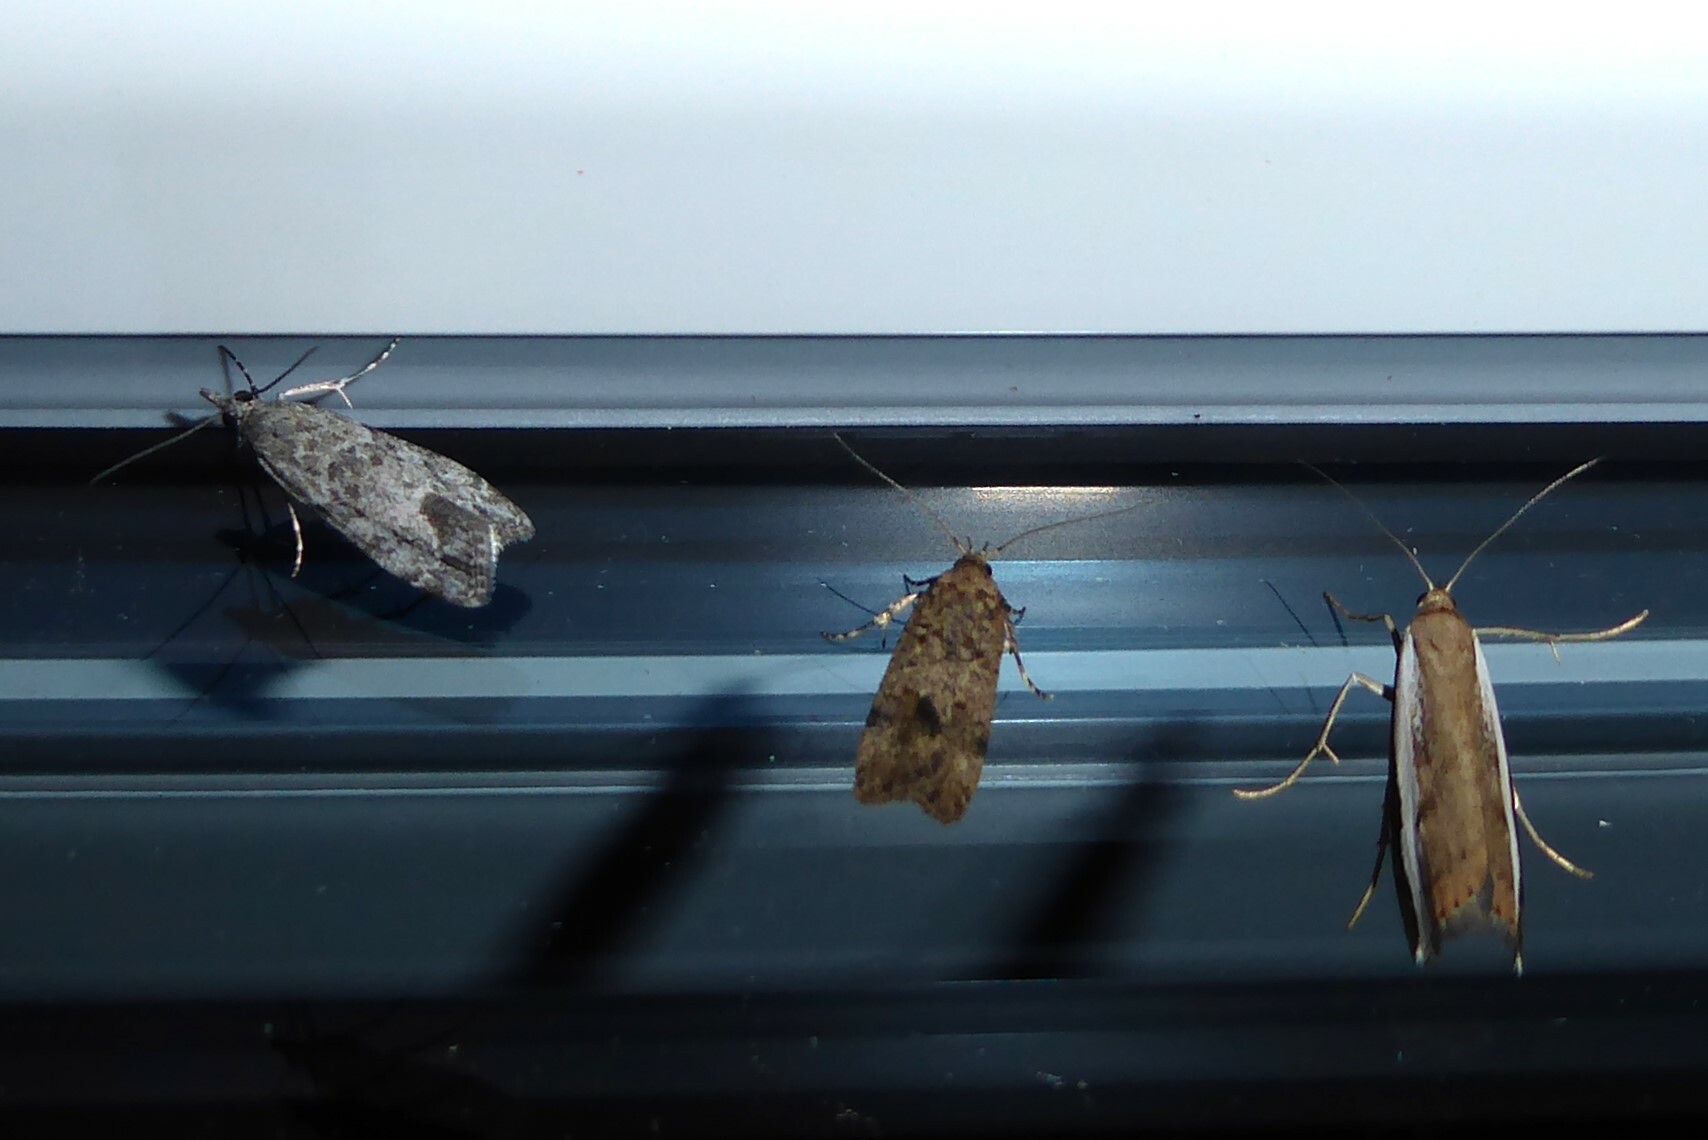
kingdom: Animalia
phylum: Arthropoda
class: Insecta
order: Lepidoptera
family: Crambidae
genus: Eudonia
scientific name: Eudonia rakaiensis
